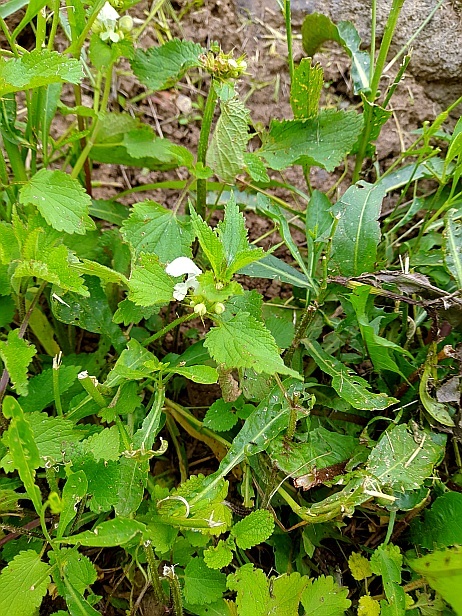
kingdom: Plantae
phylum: Tracheophyta
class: Magnoliopsida
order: Lamiales
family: Lamiaceae
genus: Lamium
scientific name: Lamium album
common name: White dead-nettle
